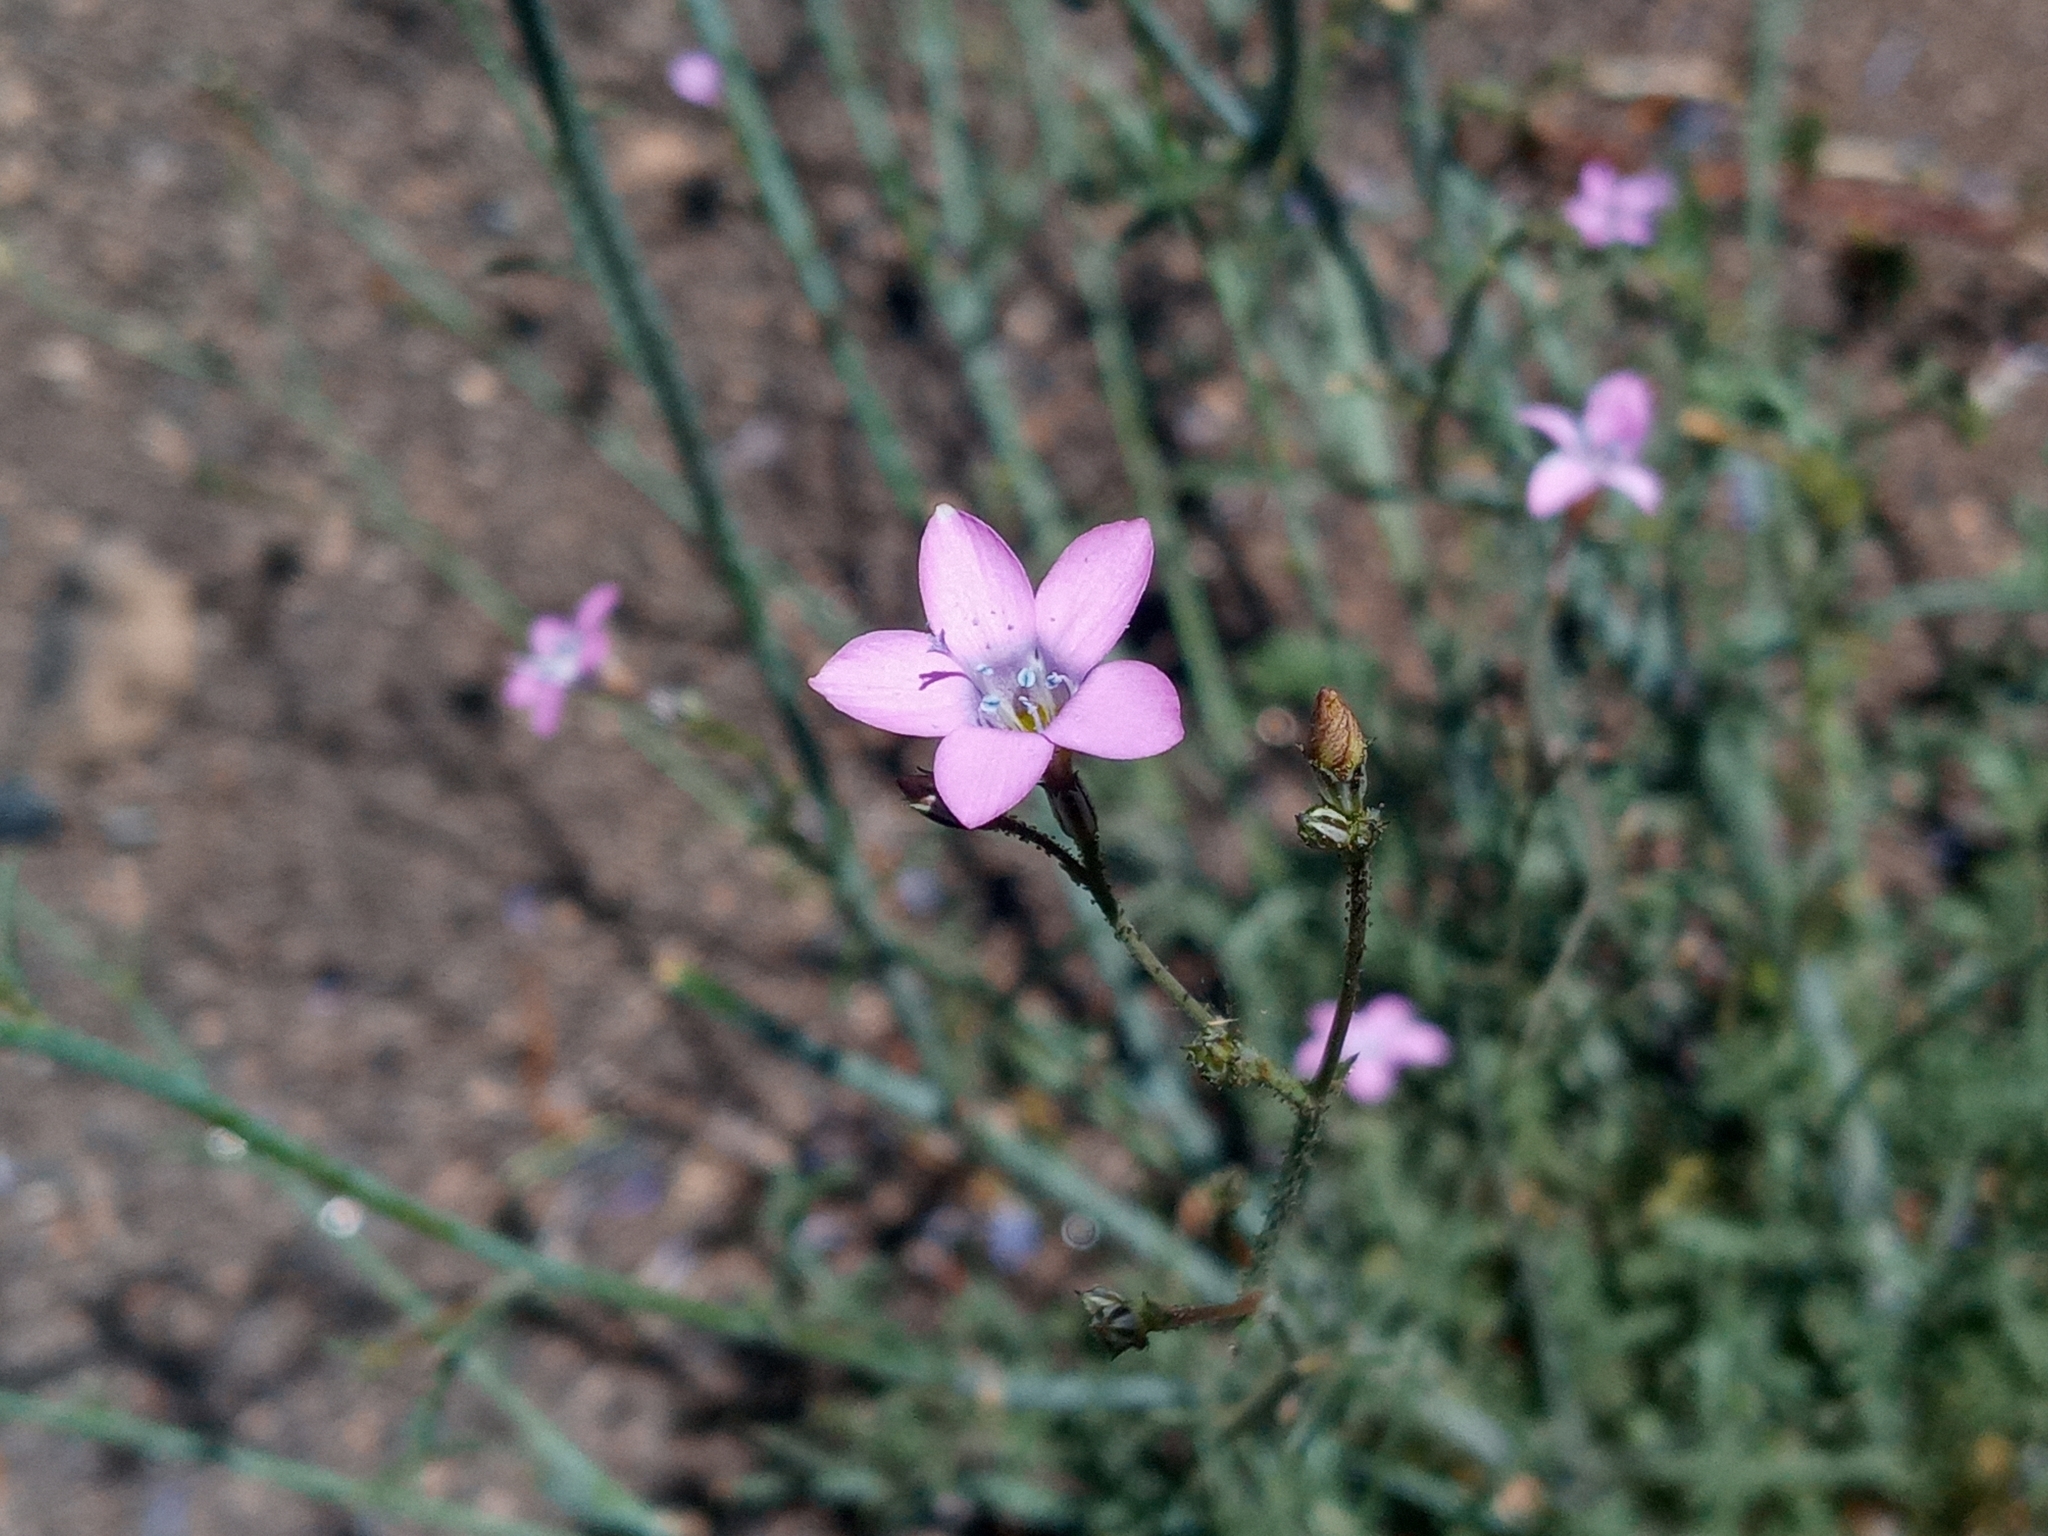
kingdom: Plantae
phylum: Tracheophyta
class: Magnoliopsida
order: Ericales
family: Polemoniaceae
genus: Saltugilia
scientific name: Saltugilia splendens
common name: Grinnell's gilia
